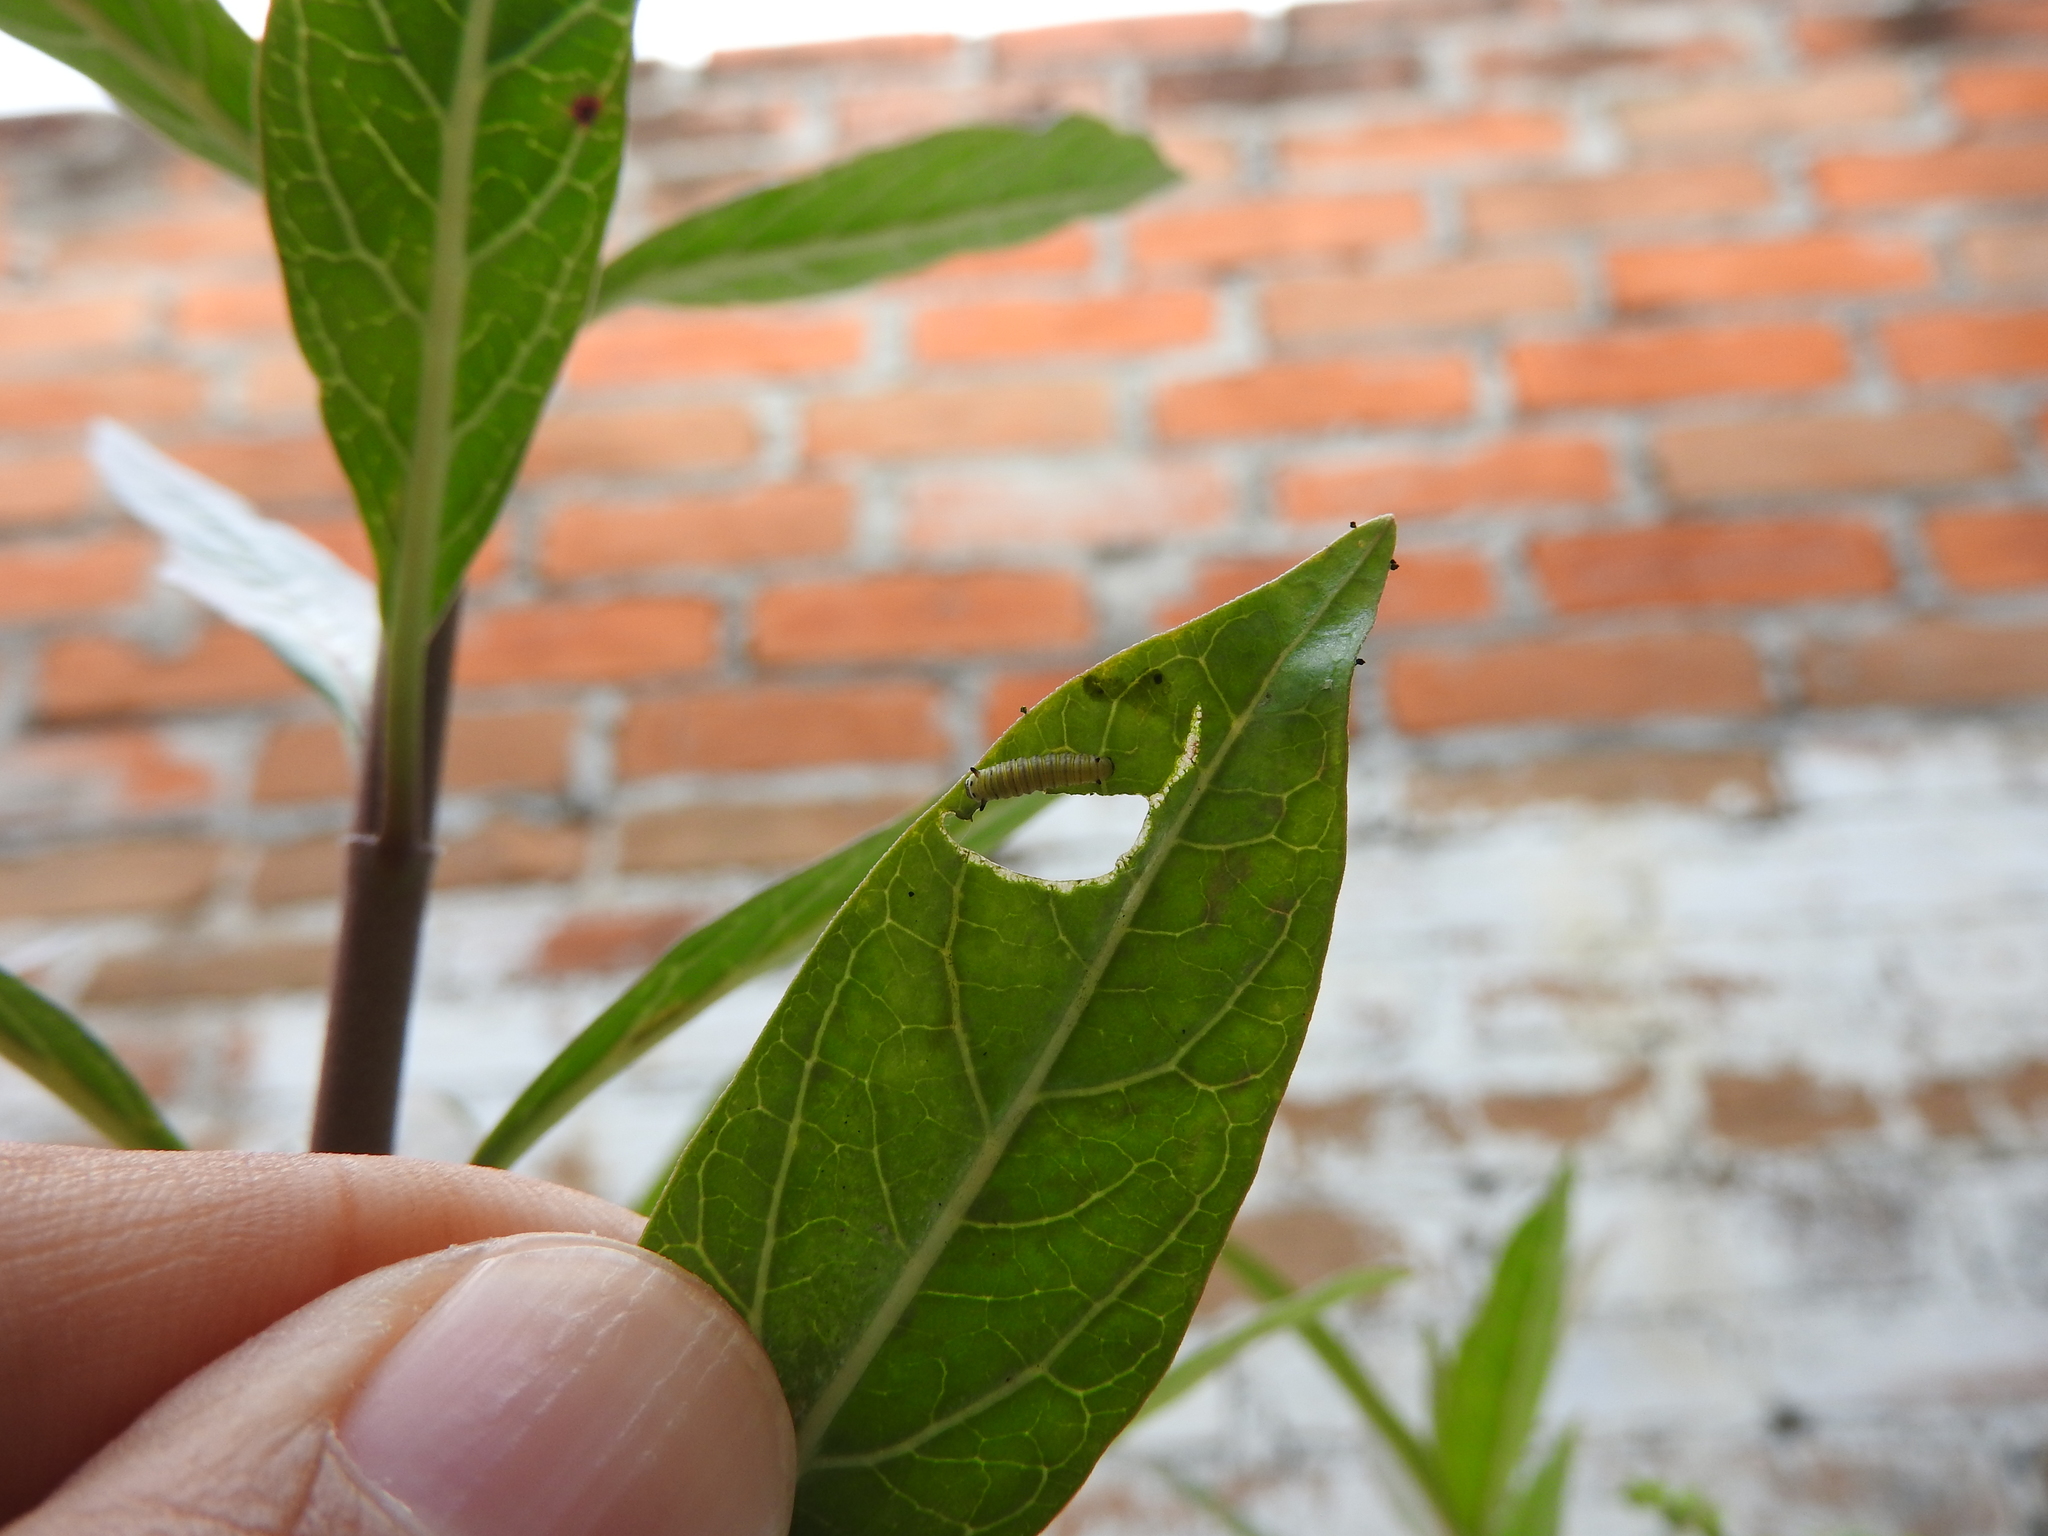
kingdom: Animalia
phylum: Arthropoda
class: Insecta
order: Lepidoptera
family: Nymphalidae
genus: Danaus
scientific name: Danaus plexippus
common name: Monarch
